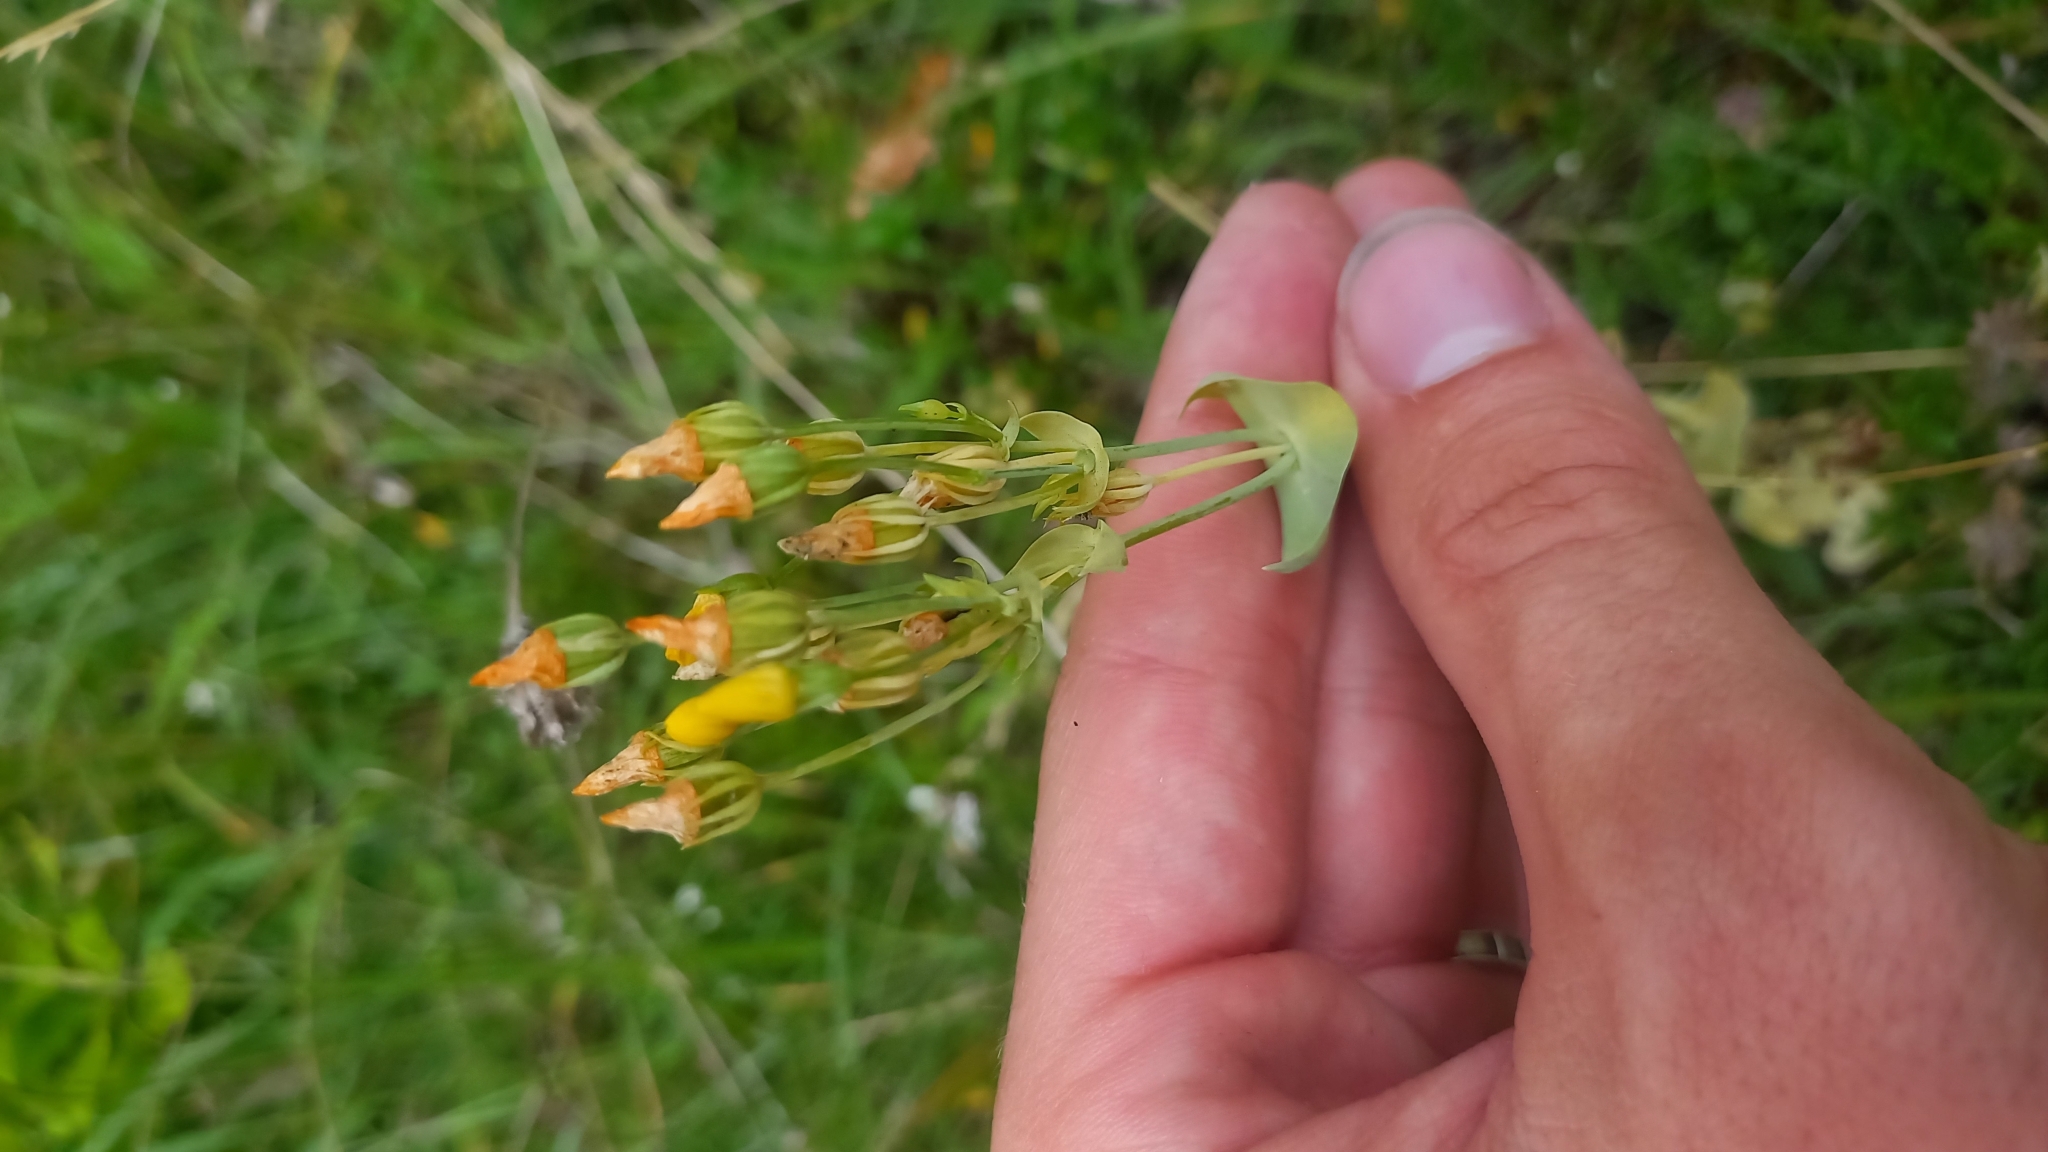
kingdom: Plantae
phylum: Tracheophyta
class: Magnoliopsida
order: Gentianales
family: Gentianaceae
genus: Blackstonia
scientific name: Blackstonia perfoliata
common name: Yellow-wort
